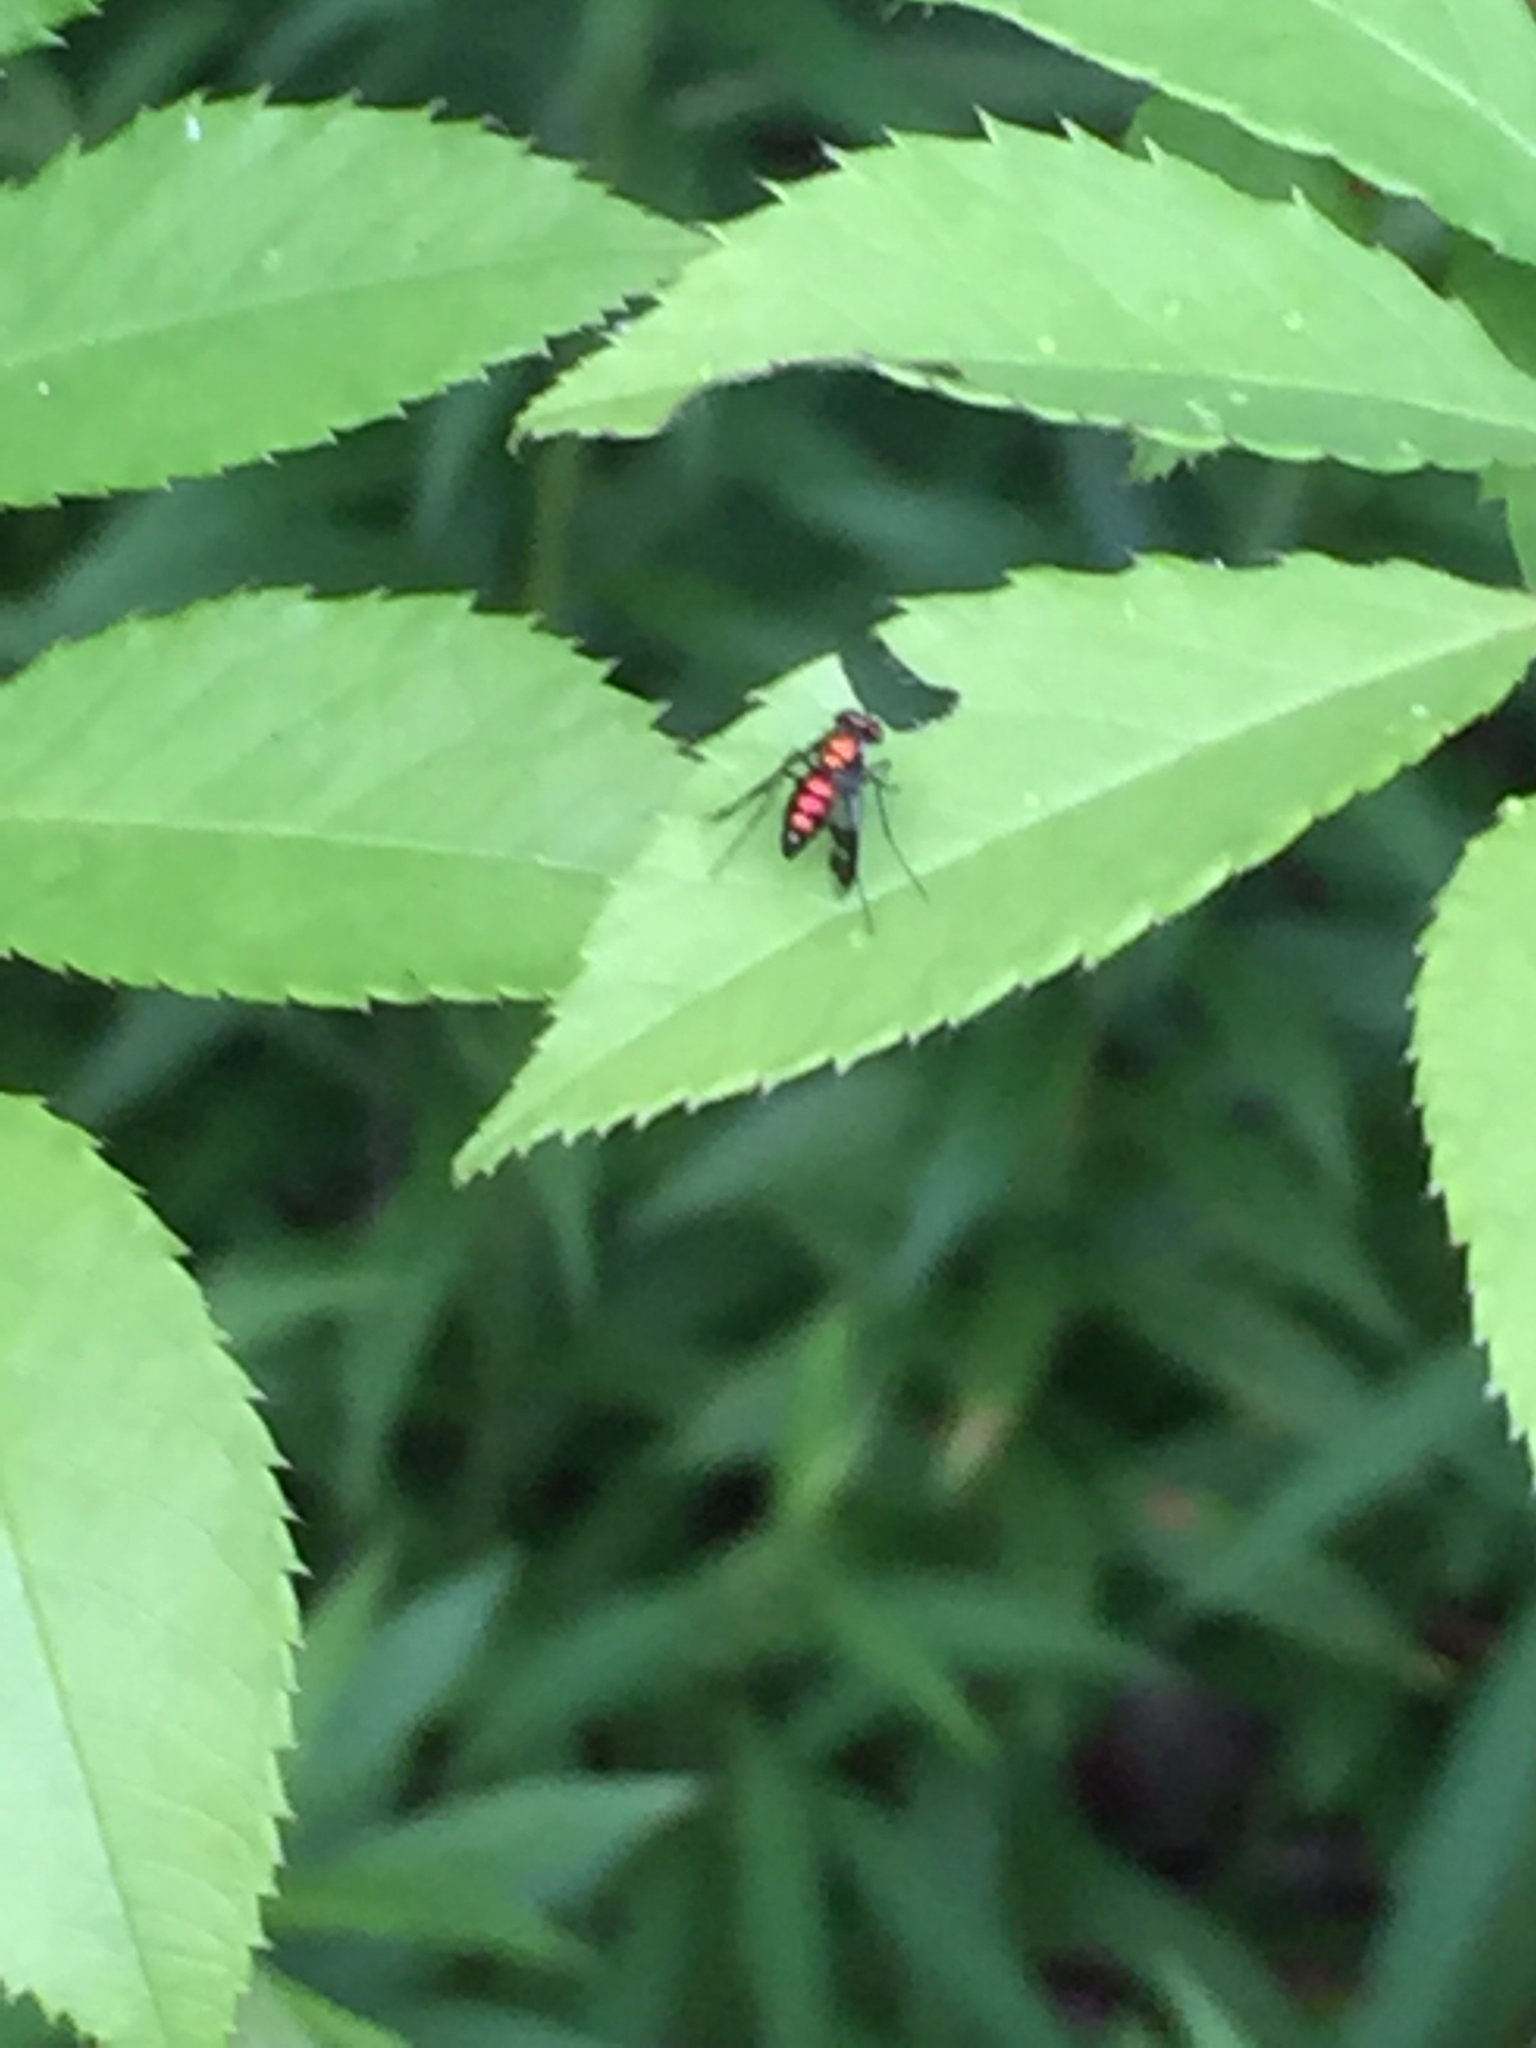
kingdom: Animalia
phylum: Arthropoda
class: Insecta
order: Diptera
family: Dolichopodidae
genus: Condylostylus
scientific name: Condylostylus patibulatus
